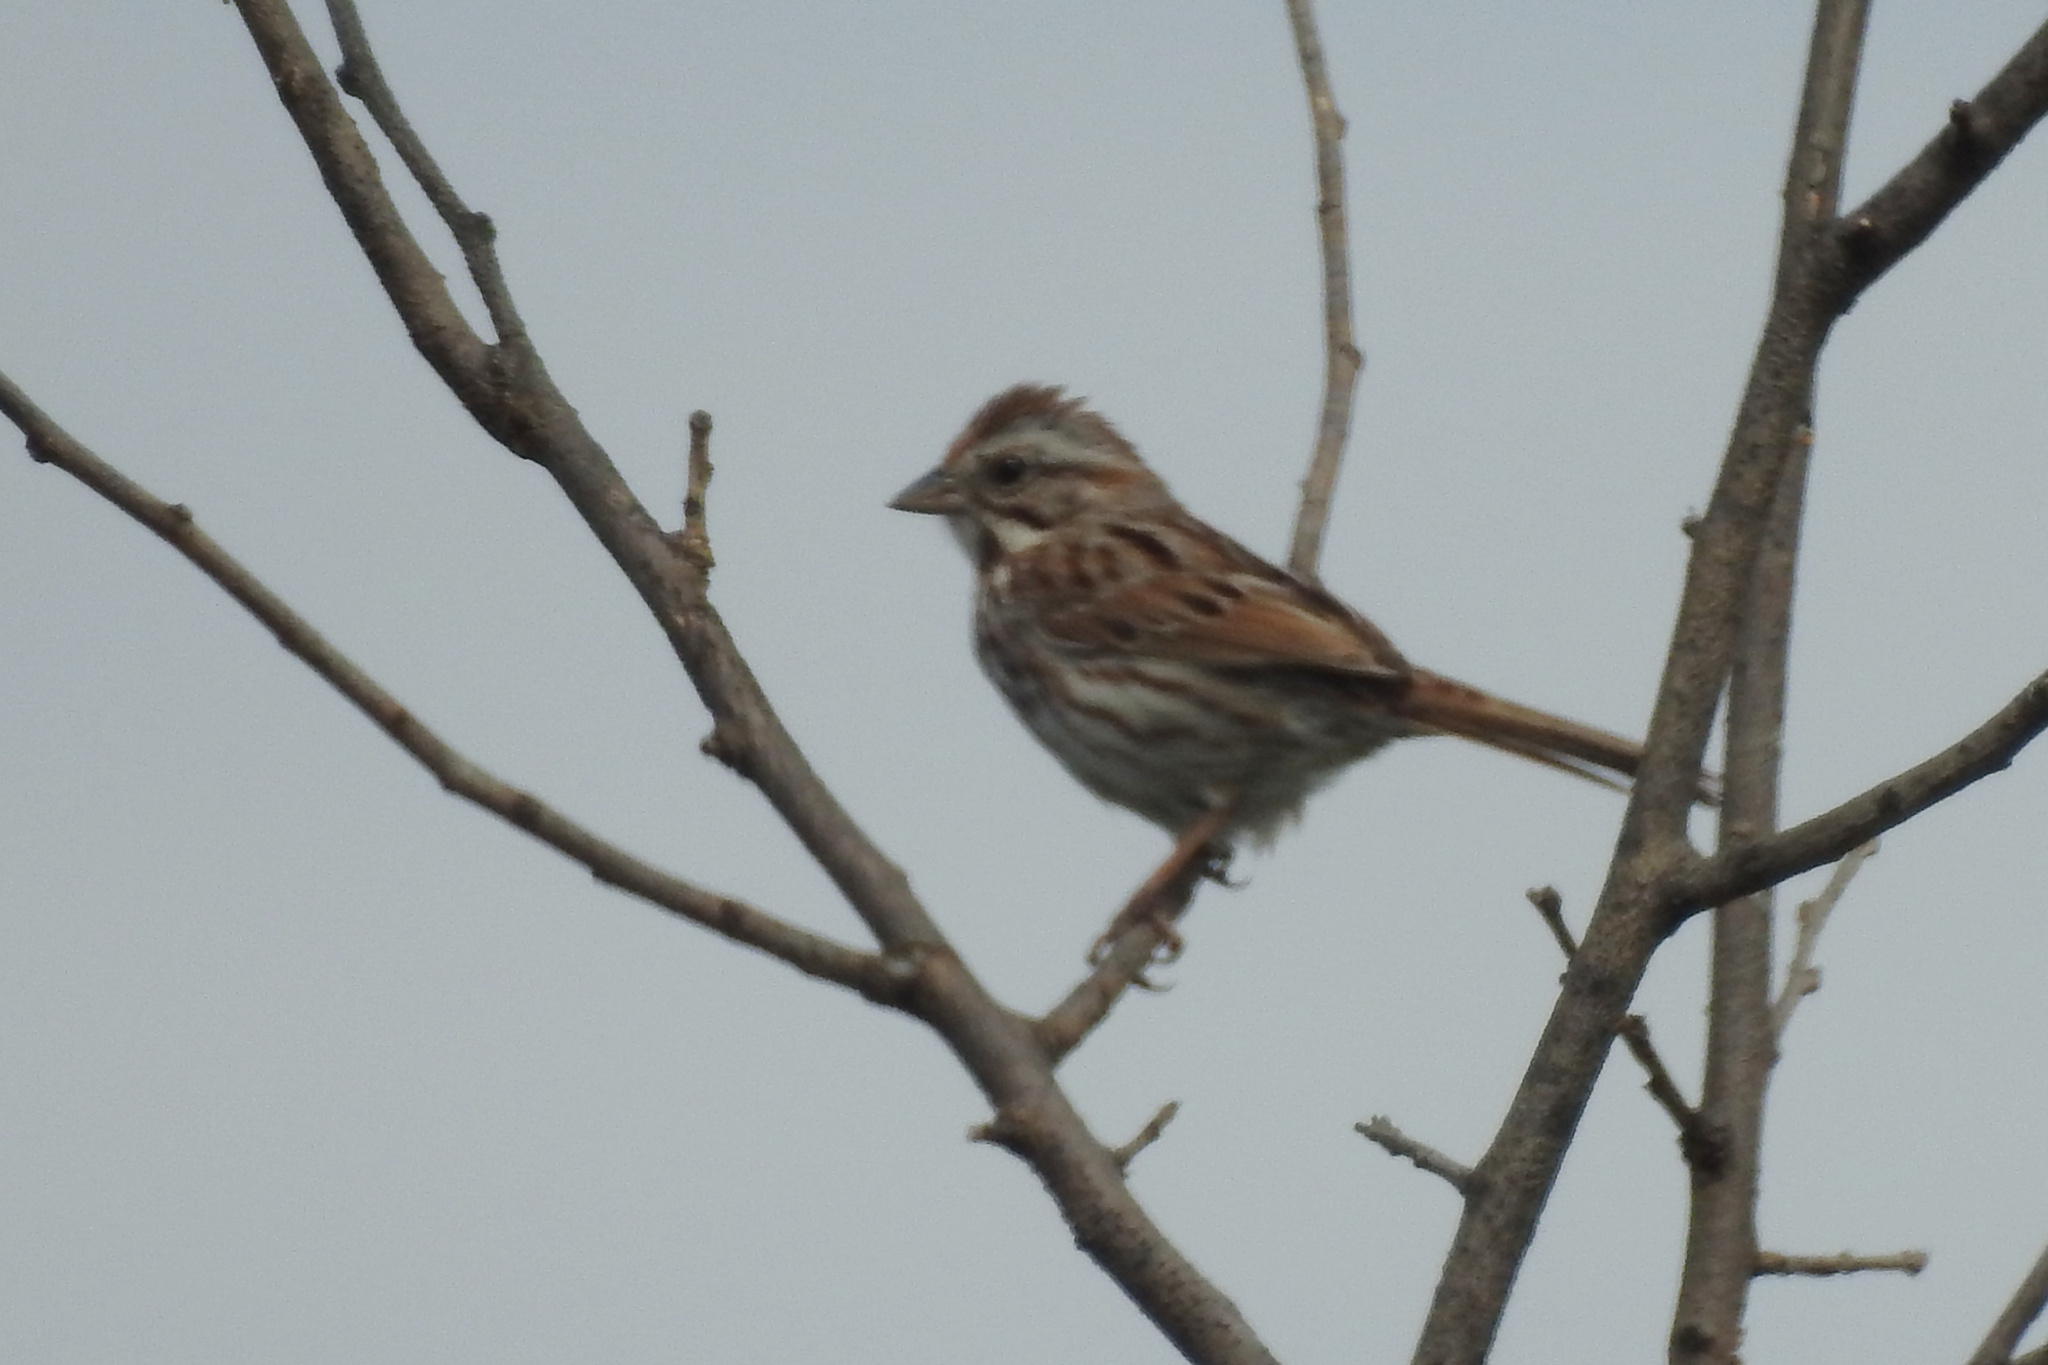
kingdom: Animalia
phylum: Chordata
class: Aves
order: Passeriformes
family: Passerellidae
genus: Melospiza
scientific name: Melospiza melodia
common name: Song sparrow
